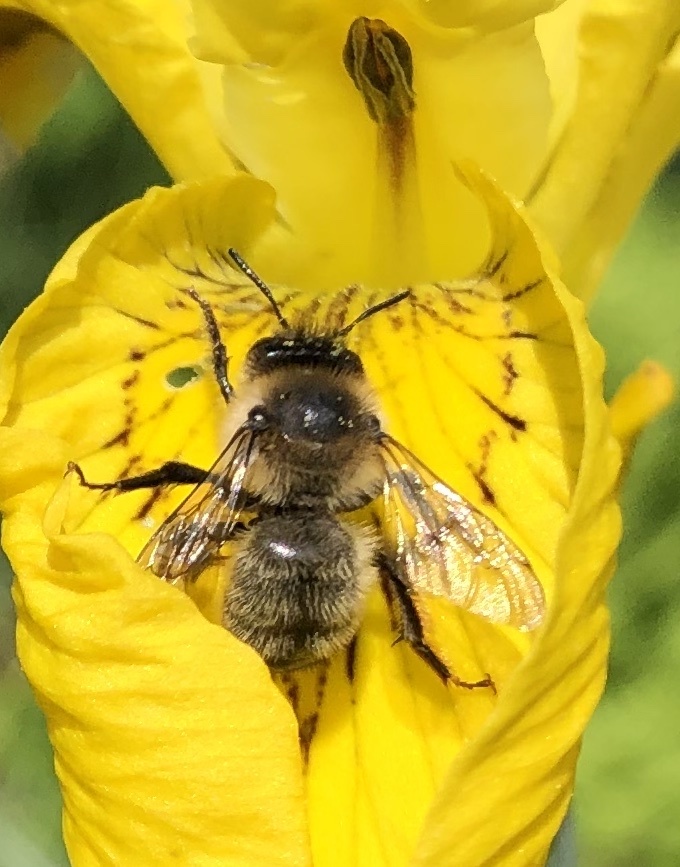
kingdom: Animalia
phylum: Arthropoda
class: Insecta
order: Hymenoptera
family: Apidae
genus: Anthophora
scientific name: Anthophora furcata
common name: Fork-tailed flower bee
